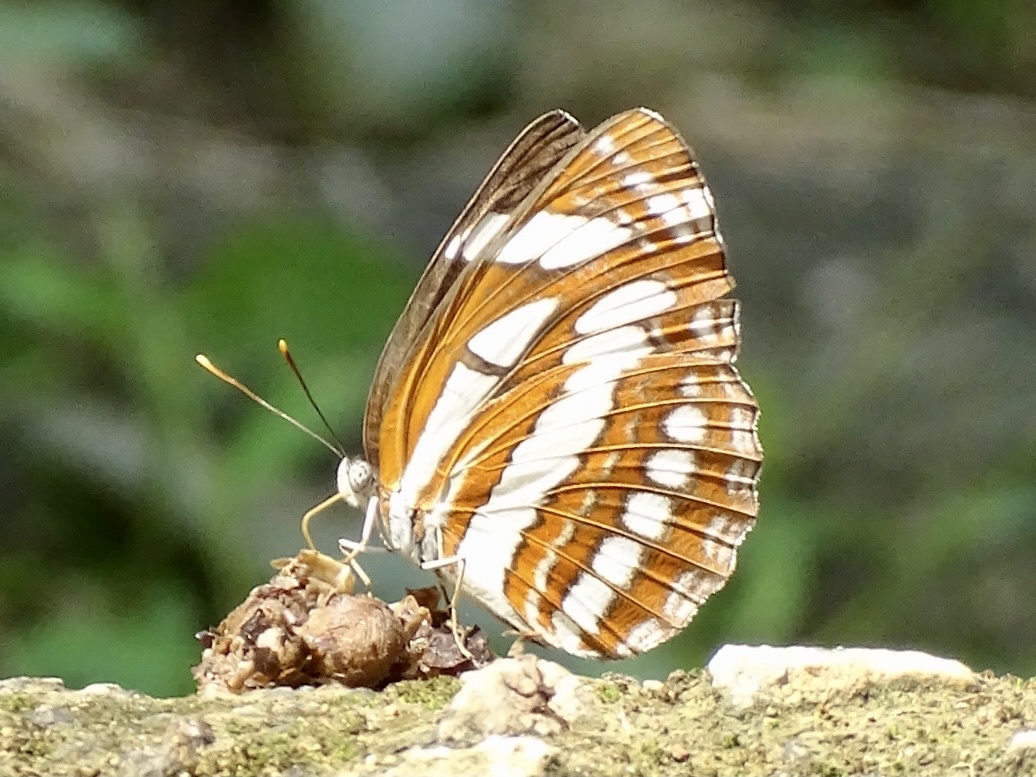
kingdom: Animalia
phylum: Arthropoda
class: Insecta
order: Lepidoptera
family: Nymphalidae
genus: Neptis
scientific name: Neptis hylas
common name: Common sailer
